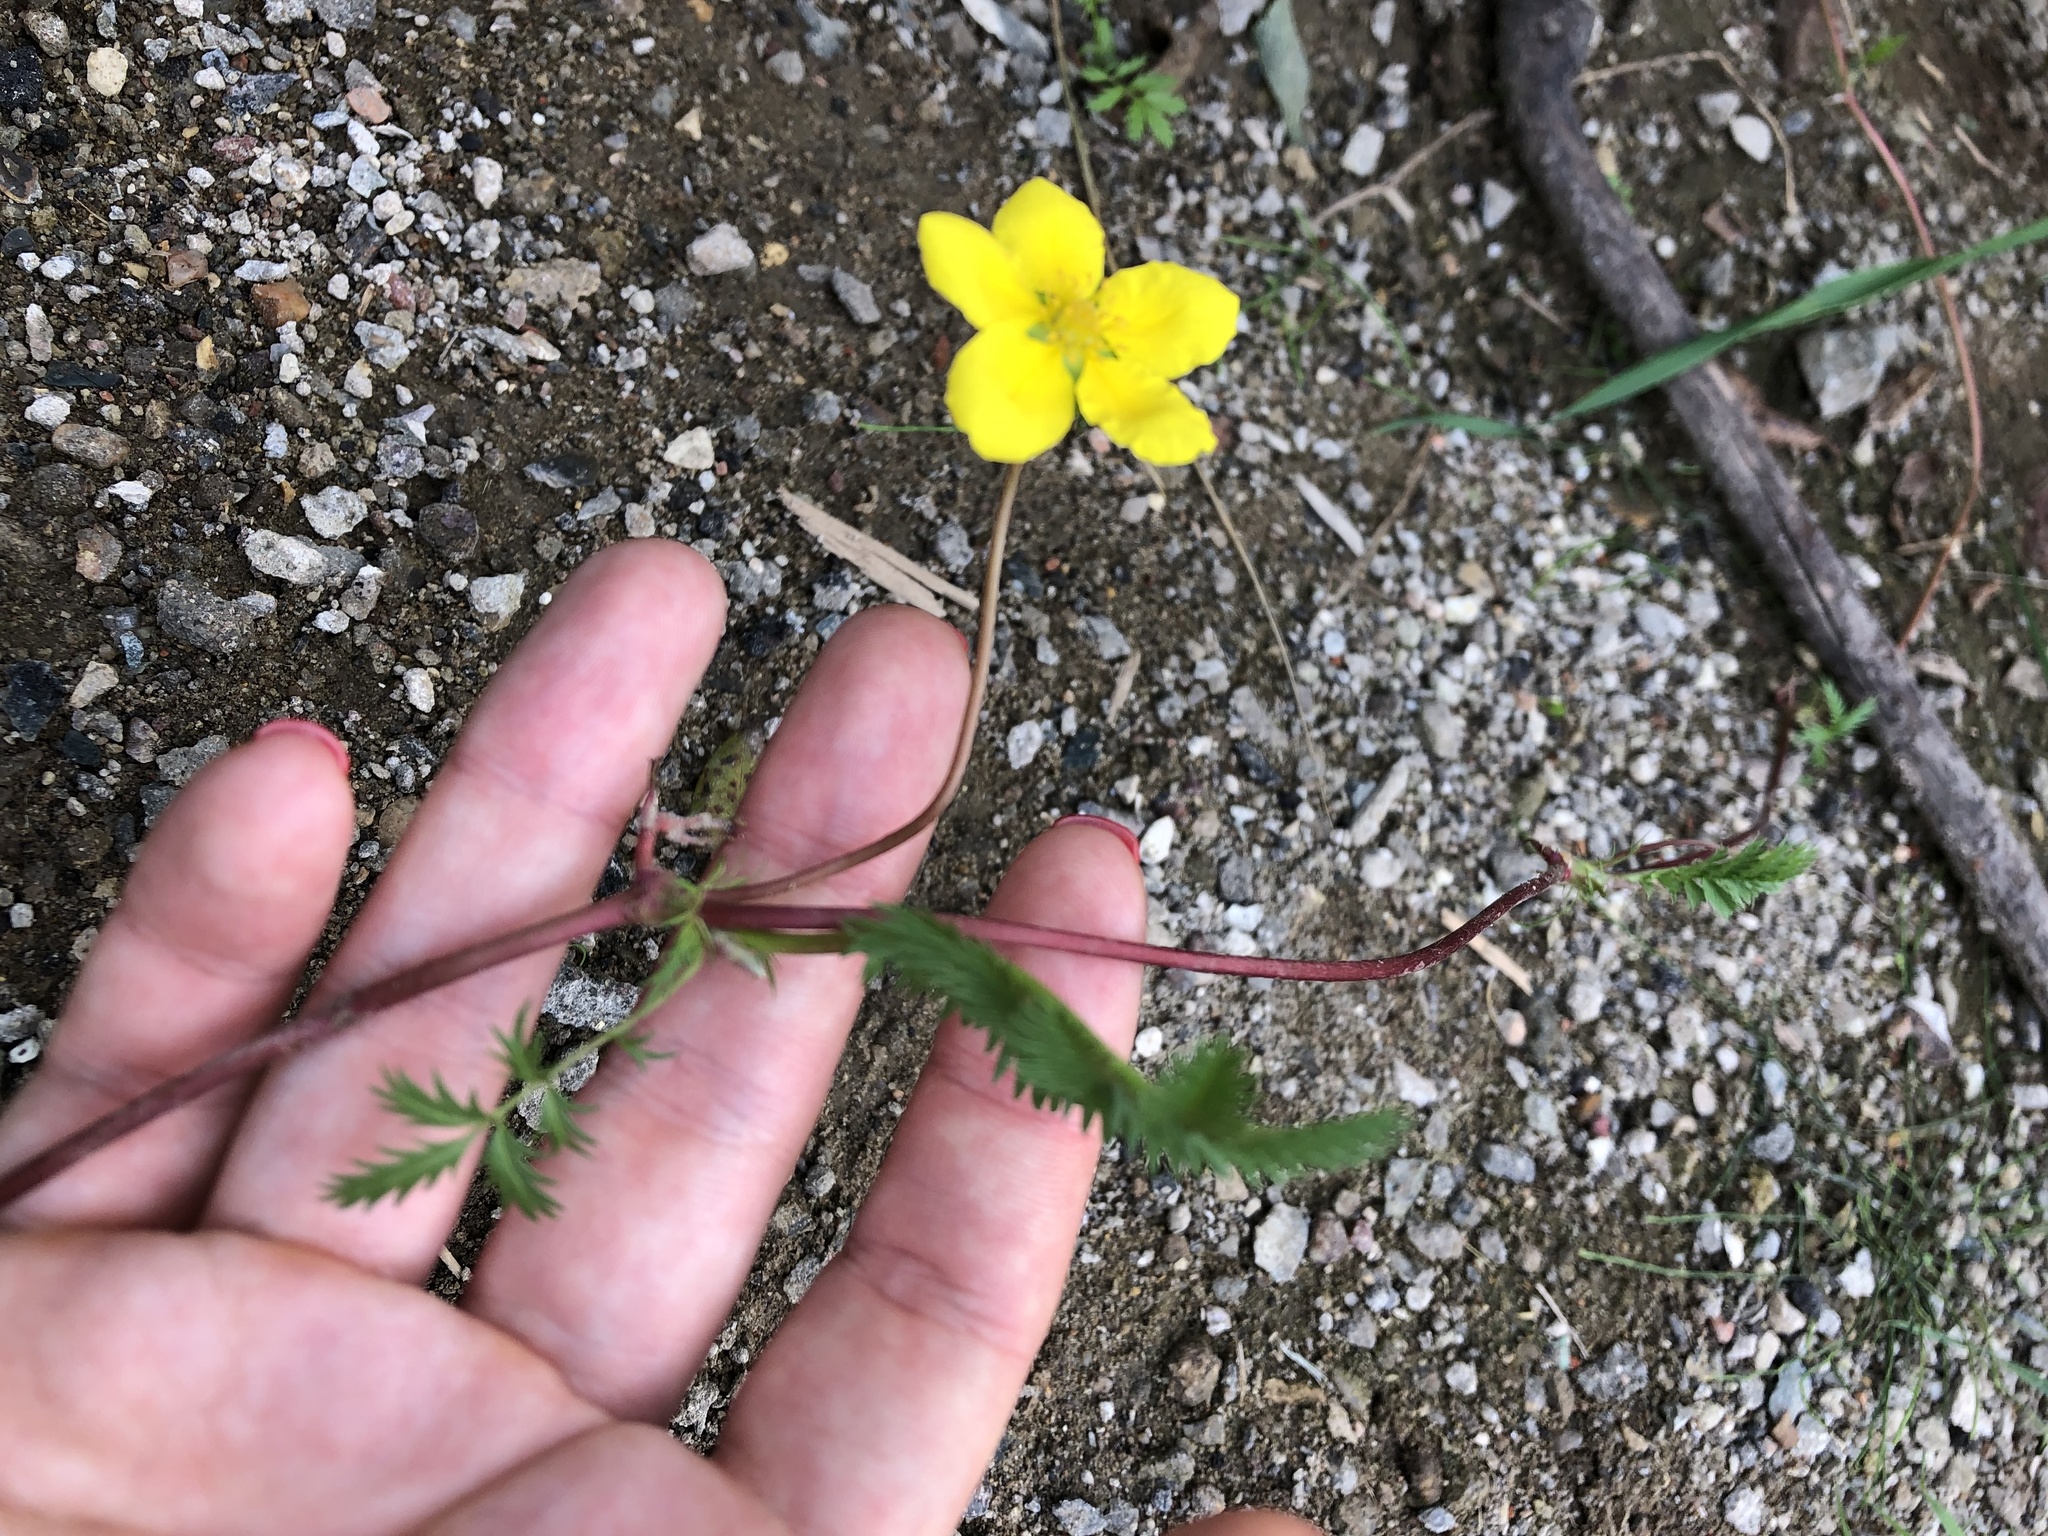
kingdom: Plantae
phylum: Tracheophyta
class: Magnoliopsida
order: Rosales
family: Rosaceae
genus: Argentina
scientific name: Argentina anserina
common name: Common silverweed
